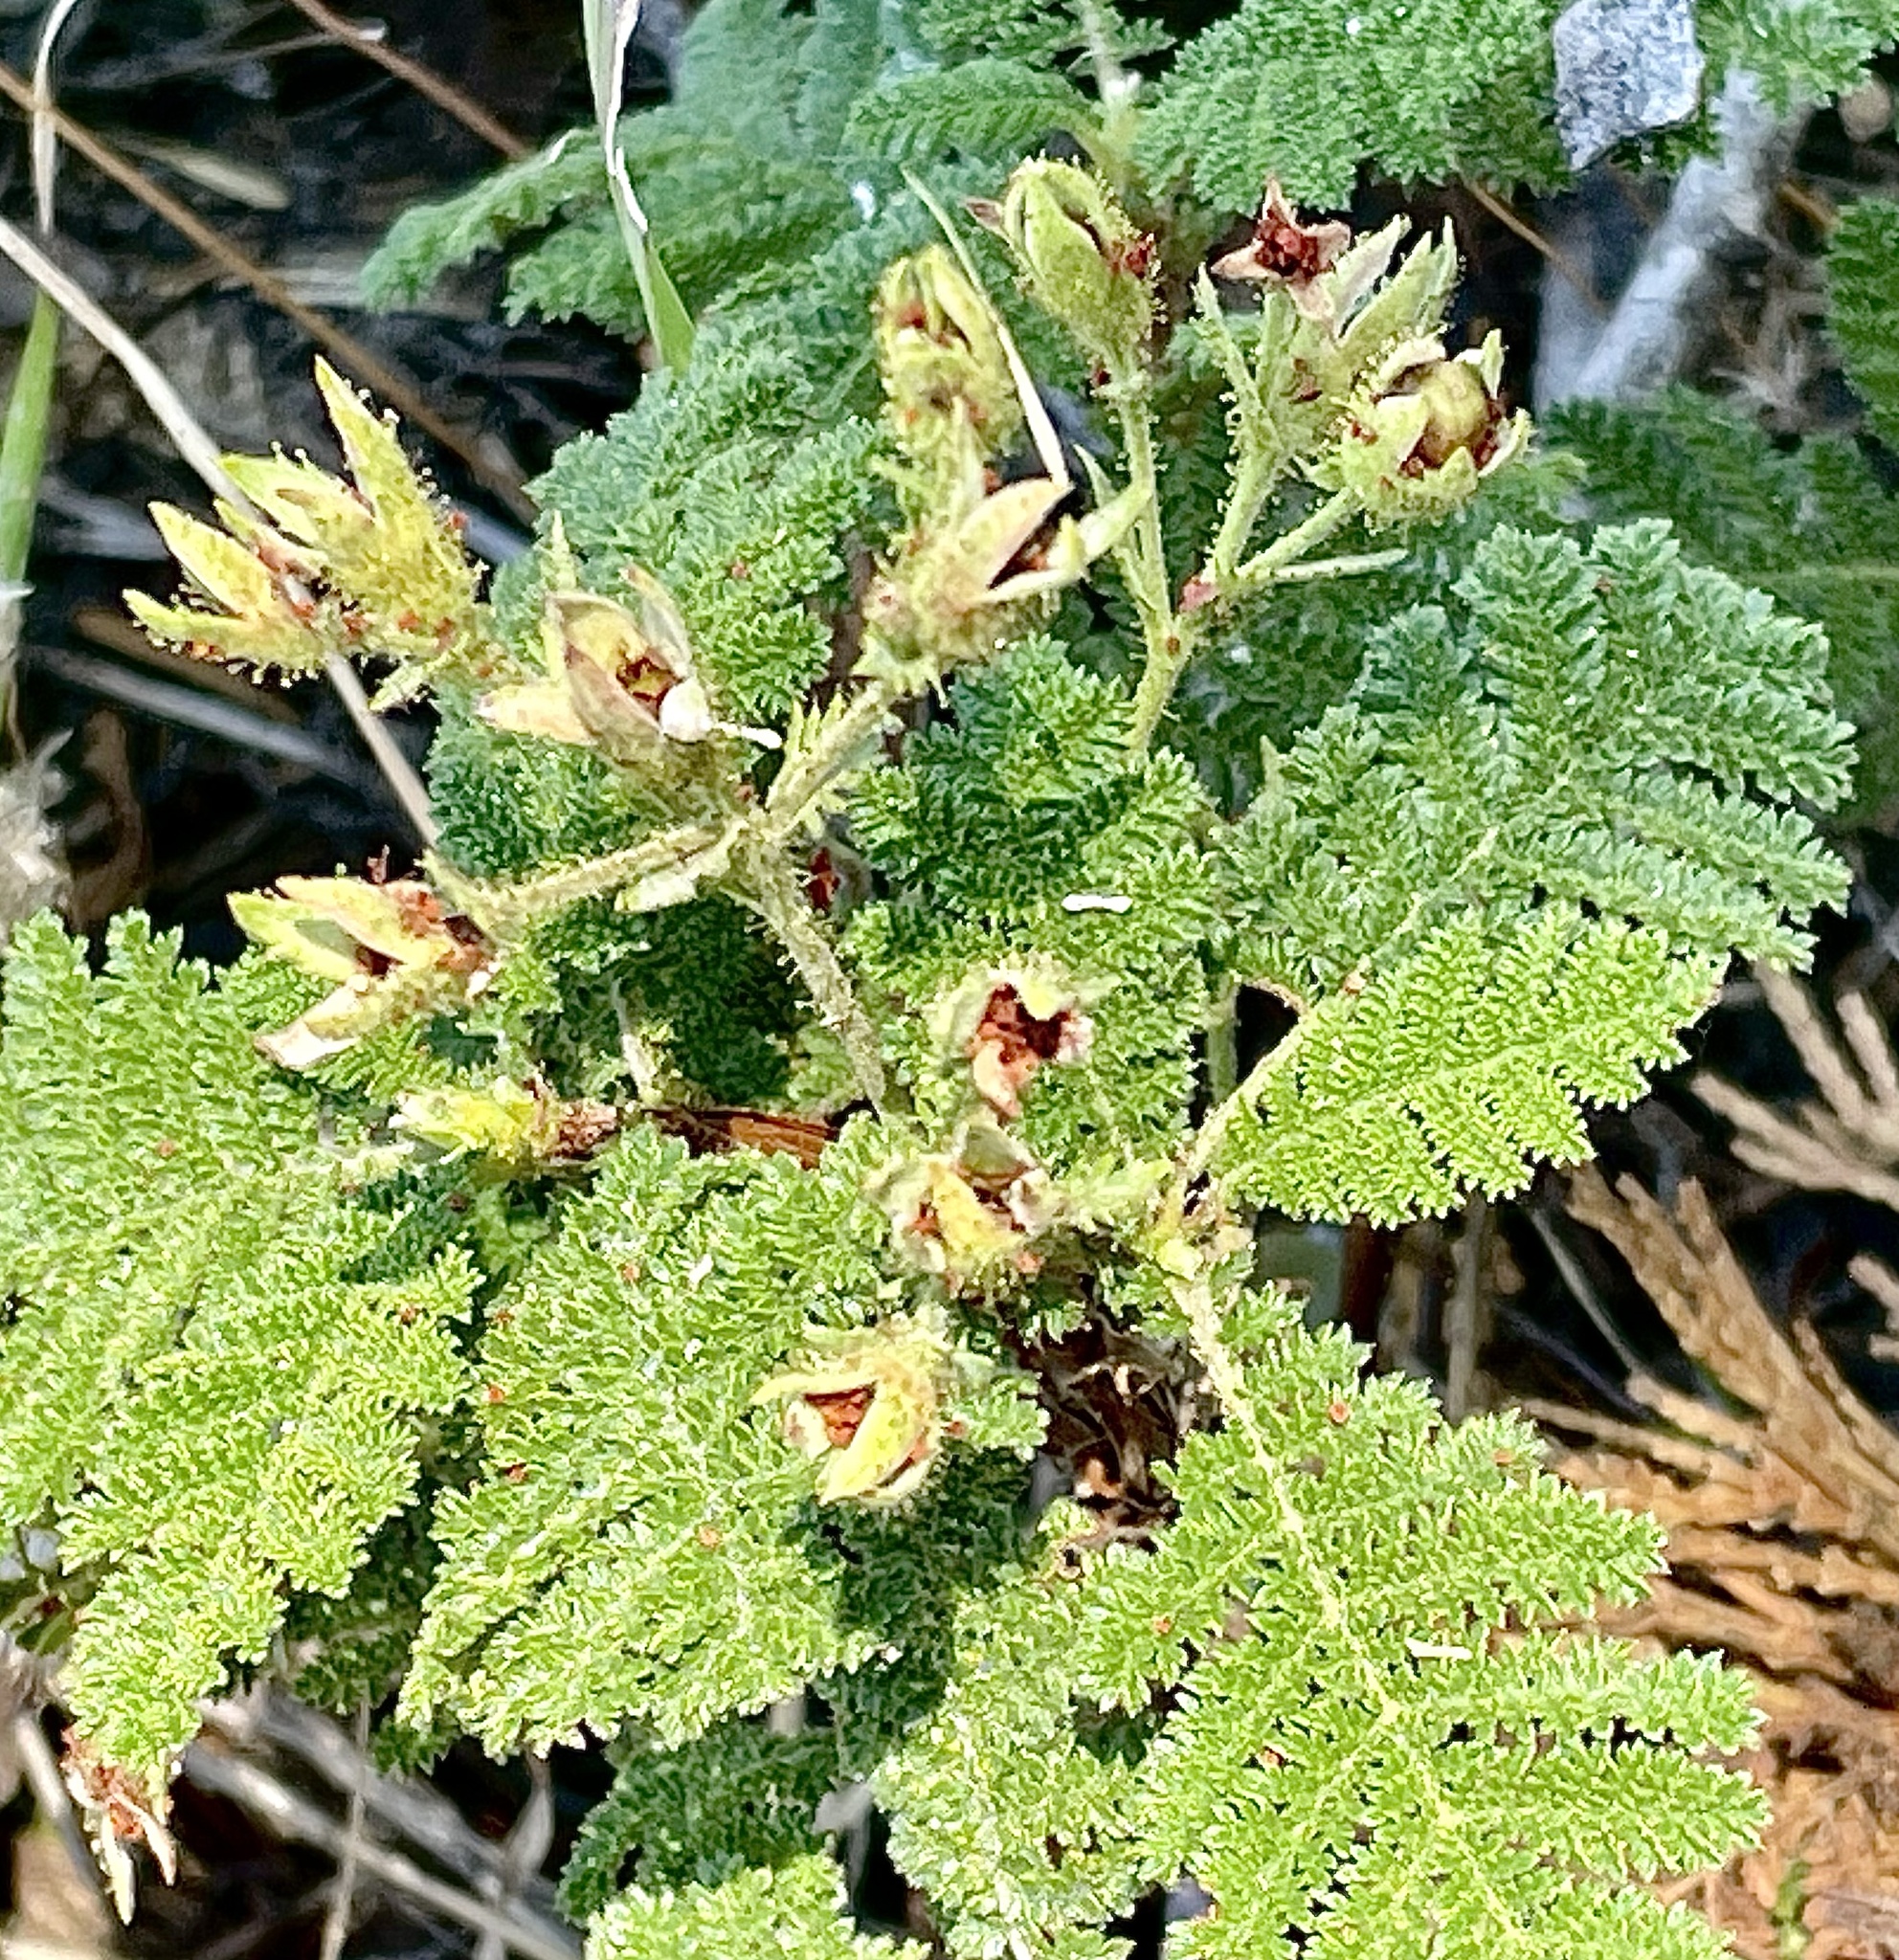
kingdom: Plantae
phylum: Tracheophyta
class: Magnoliopsida
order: Rosales
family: Rosaceae
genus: Chamaebatia
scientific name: Chamaebatia foliolosa
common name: Mountain misery
